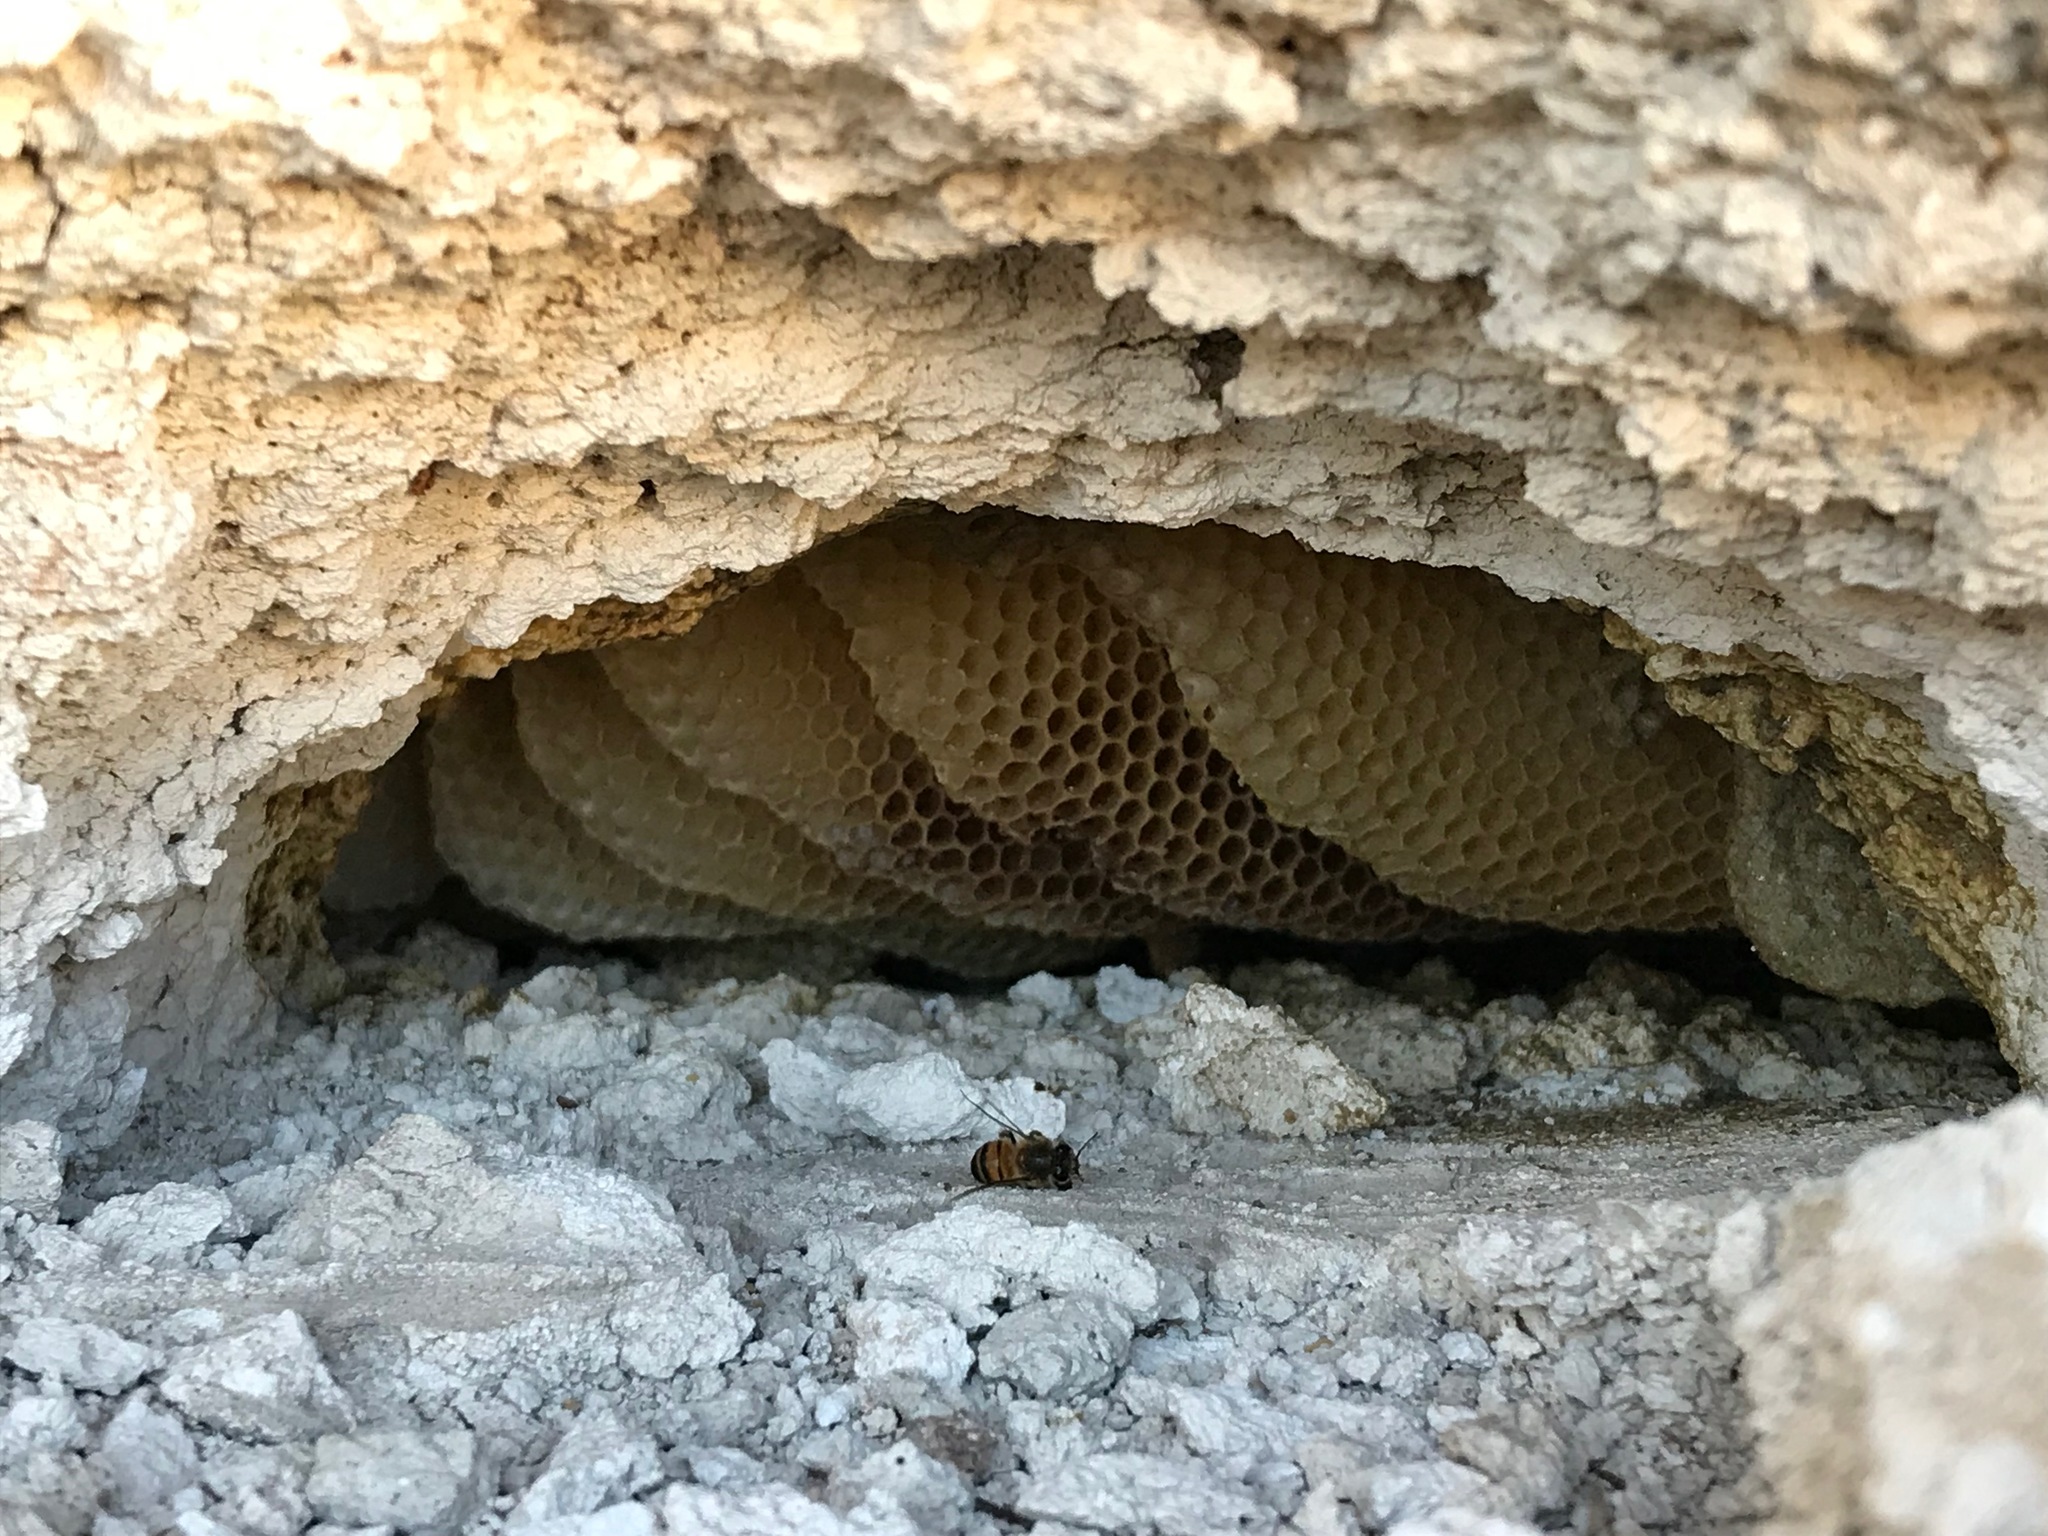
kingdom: Animalia
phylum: Arthropoda
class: Insecta
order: Hymenoptera
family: Apidae
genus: Apis
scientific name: Apis mellifera
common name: Honey bee
